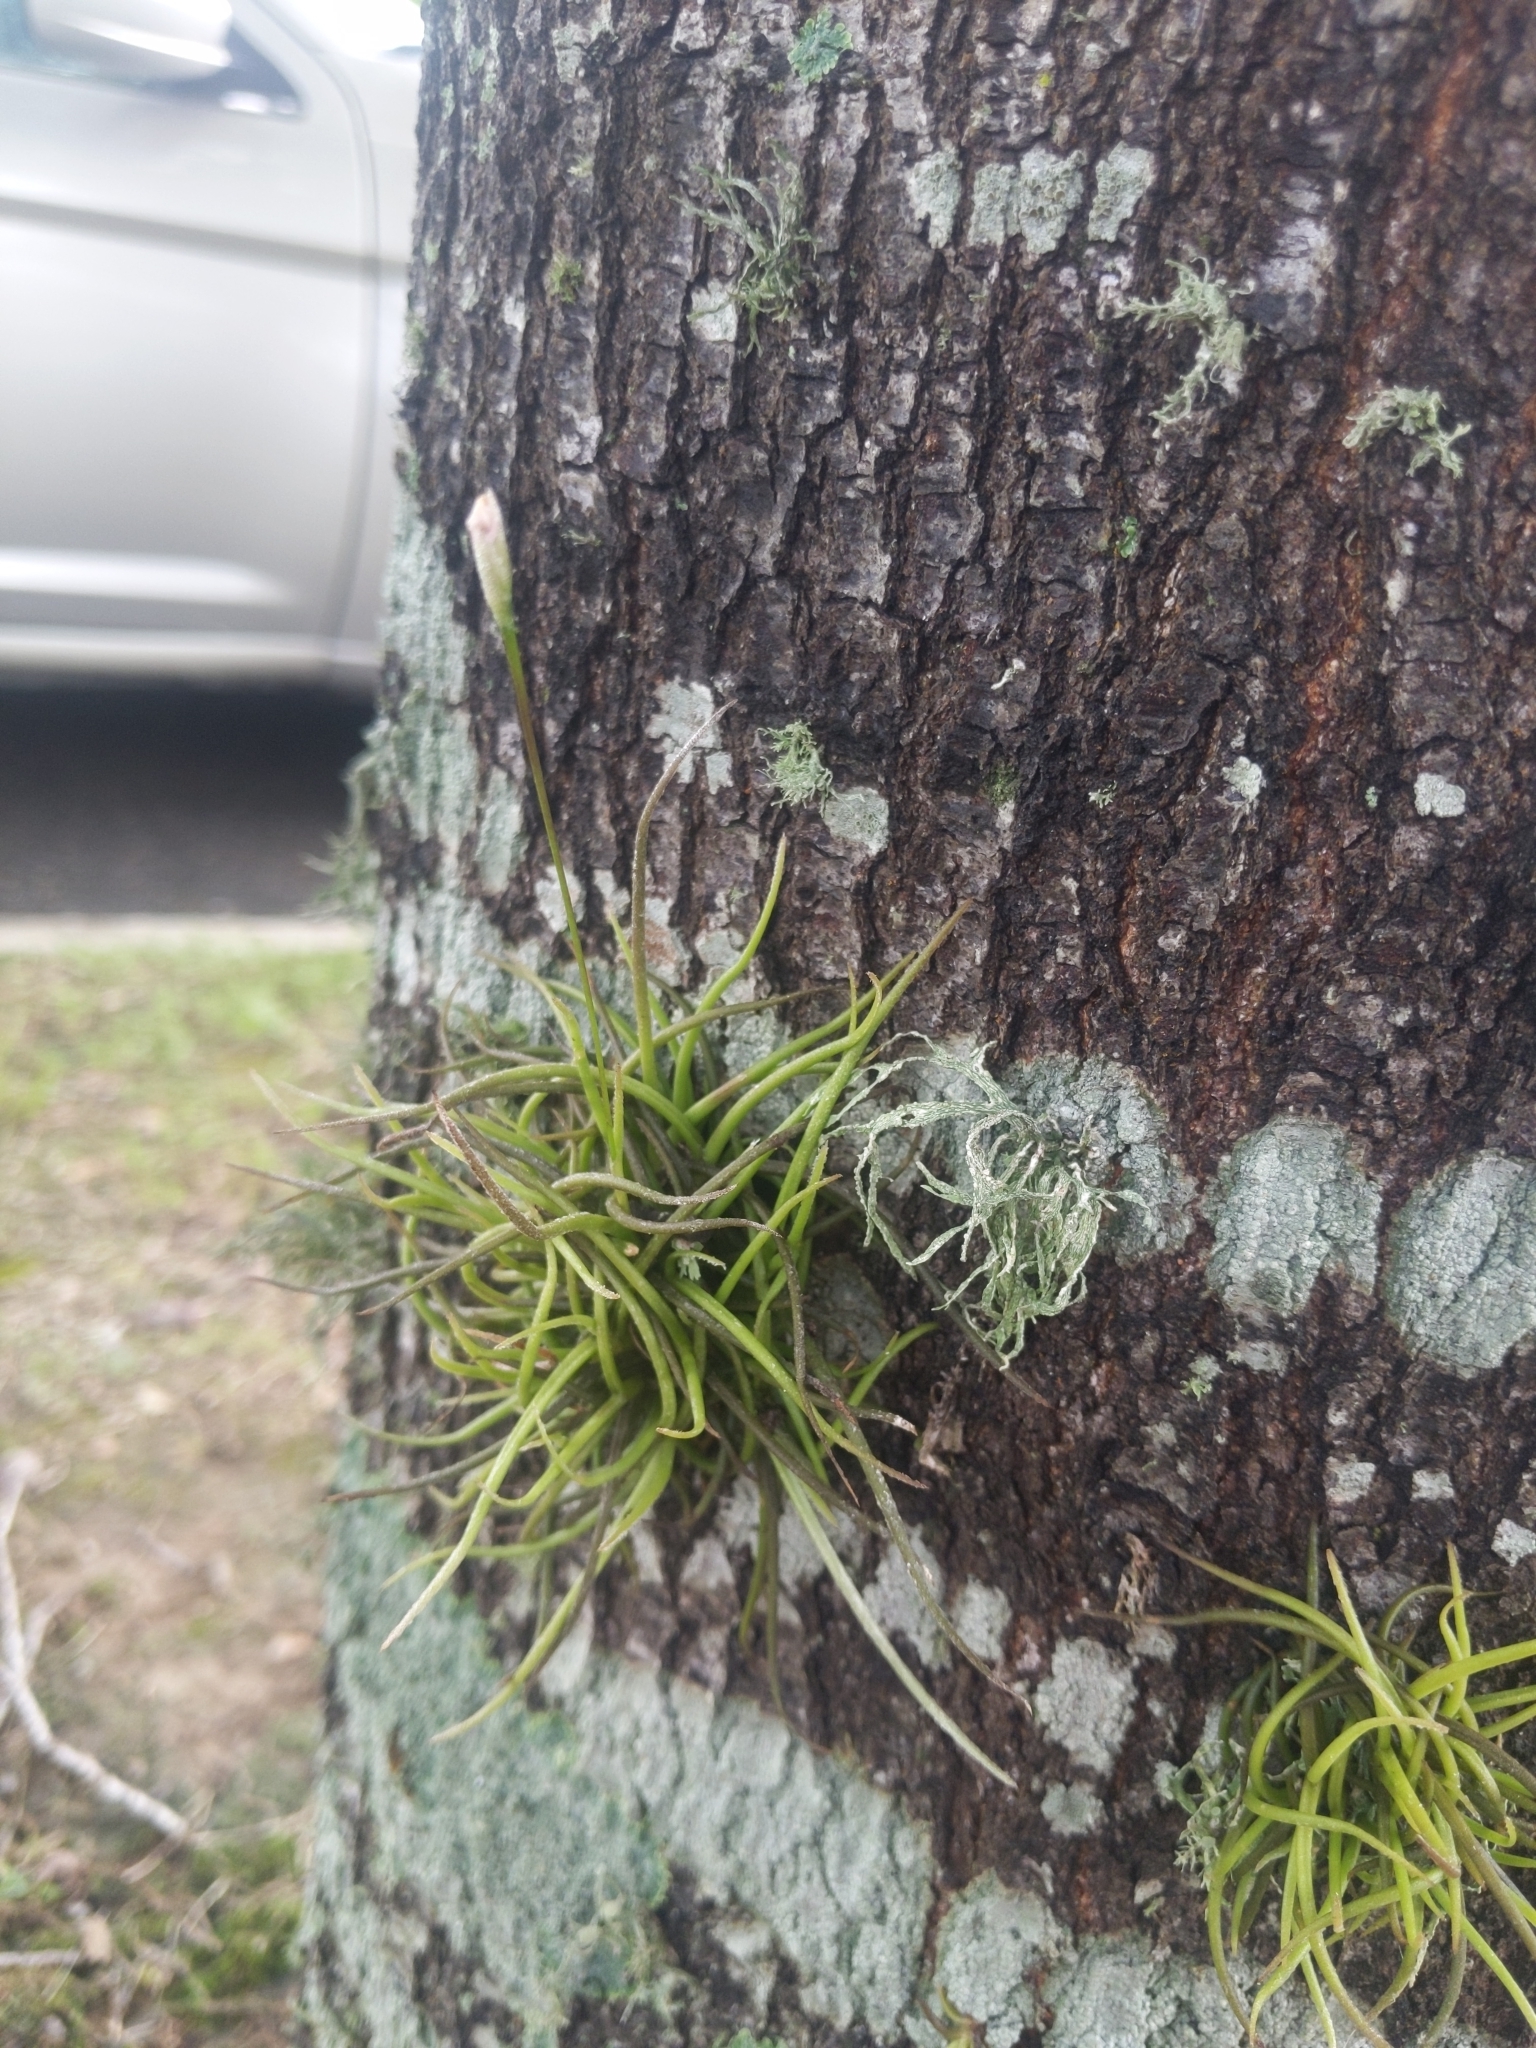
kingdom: Plantae
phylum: Tracheophyta
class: Liliopsida
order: Poales
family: Bromeliaceae
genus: Tillandsia
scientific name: Tillandsia recurvata
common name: Small ballmoss
